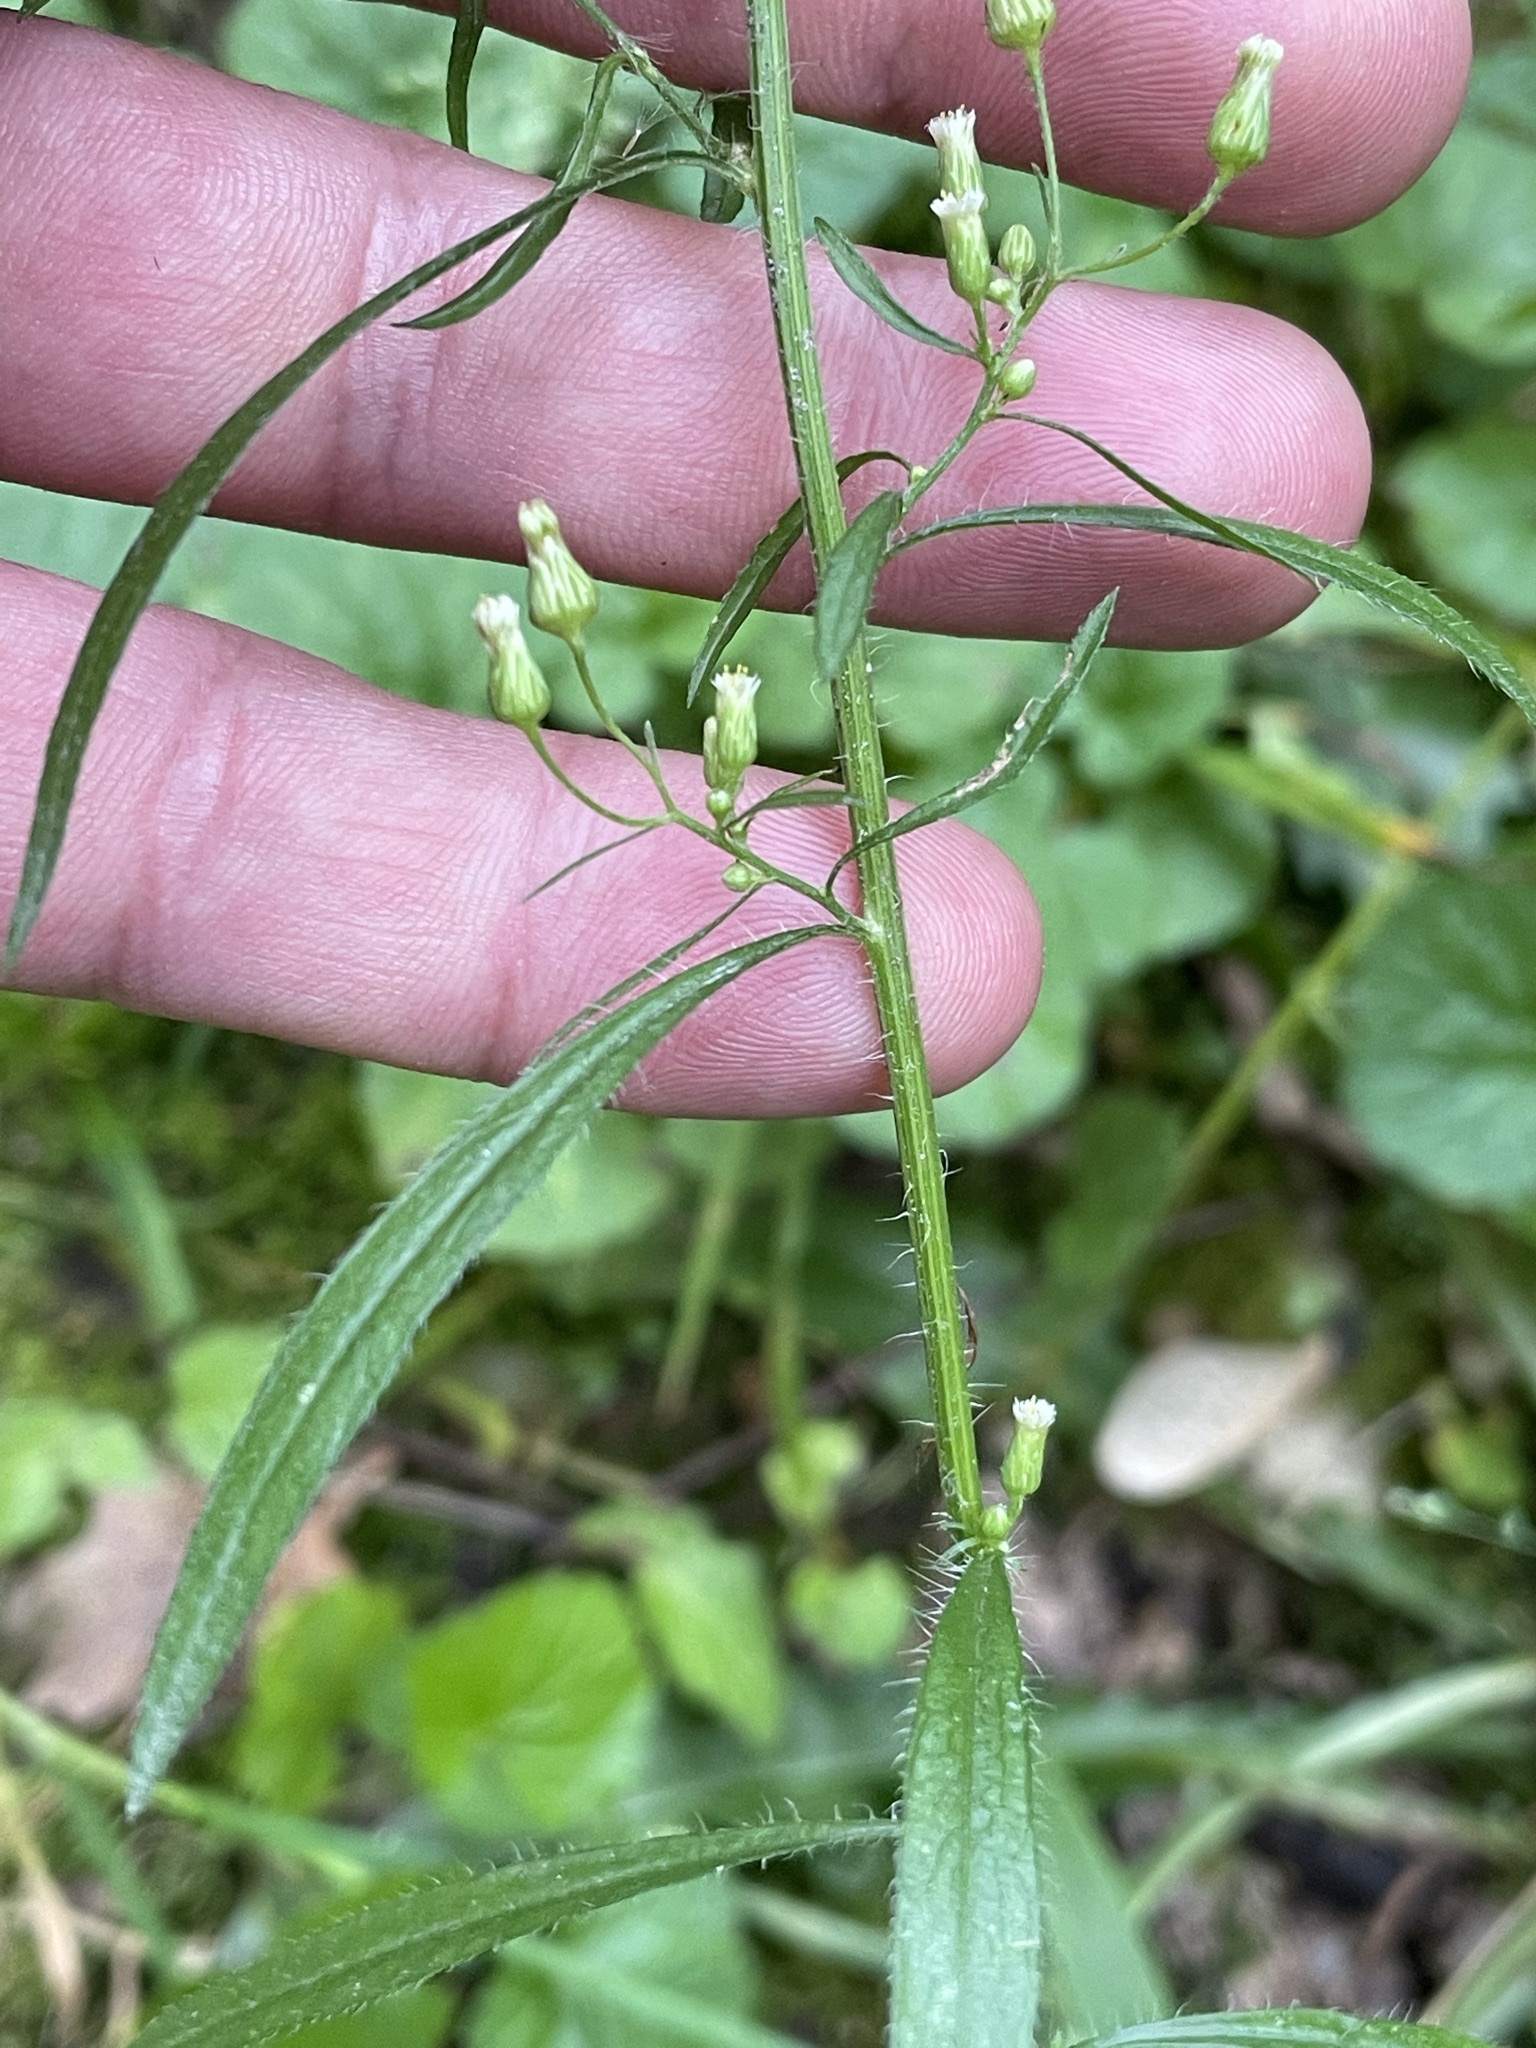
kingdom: Plantae
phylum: Tracheophyta
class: Magnoliopsida
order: Asterales
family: Asteraceae
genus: Erigeron
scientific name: Erigeron canadensis
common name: Canadian fleabane
